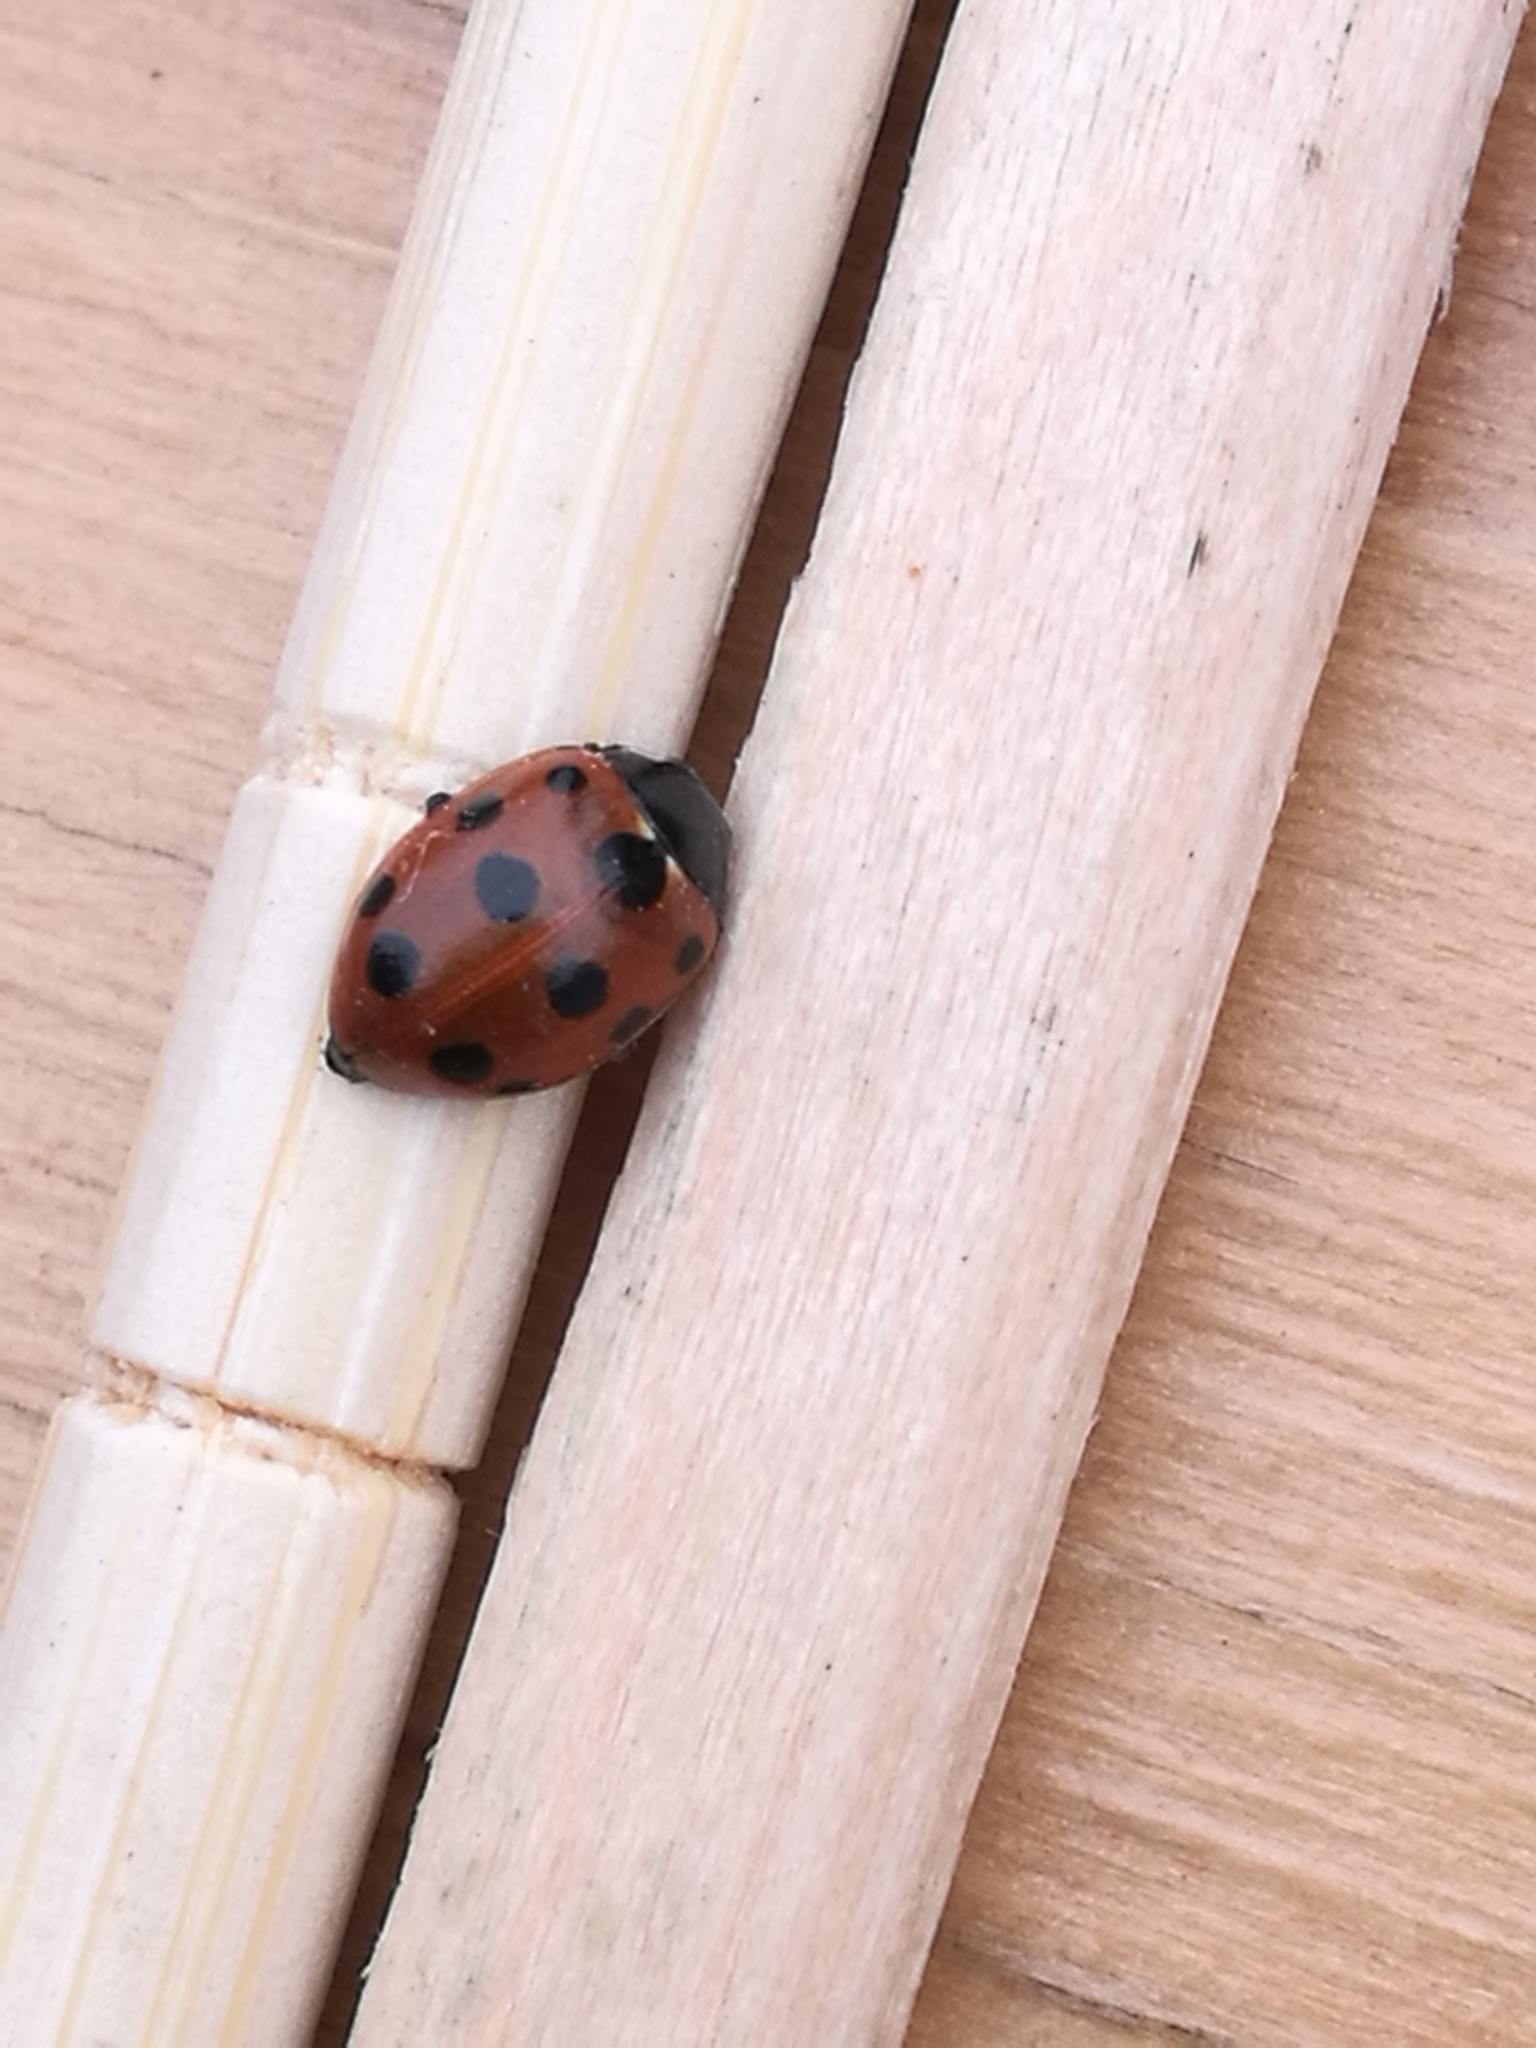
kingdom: Animalia
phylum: Arthropoda
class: Insecta
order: Coleoptera
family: Coccinellidae
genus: Coccinella
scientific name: Coccinella undecimpunctata
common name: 11-spot ladybird
